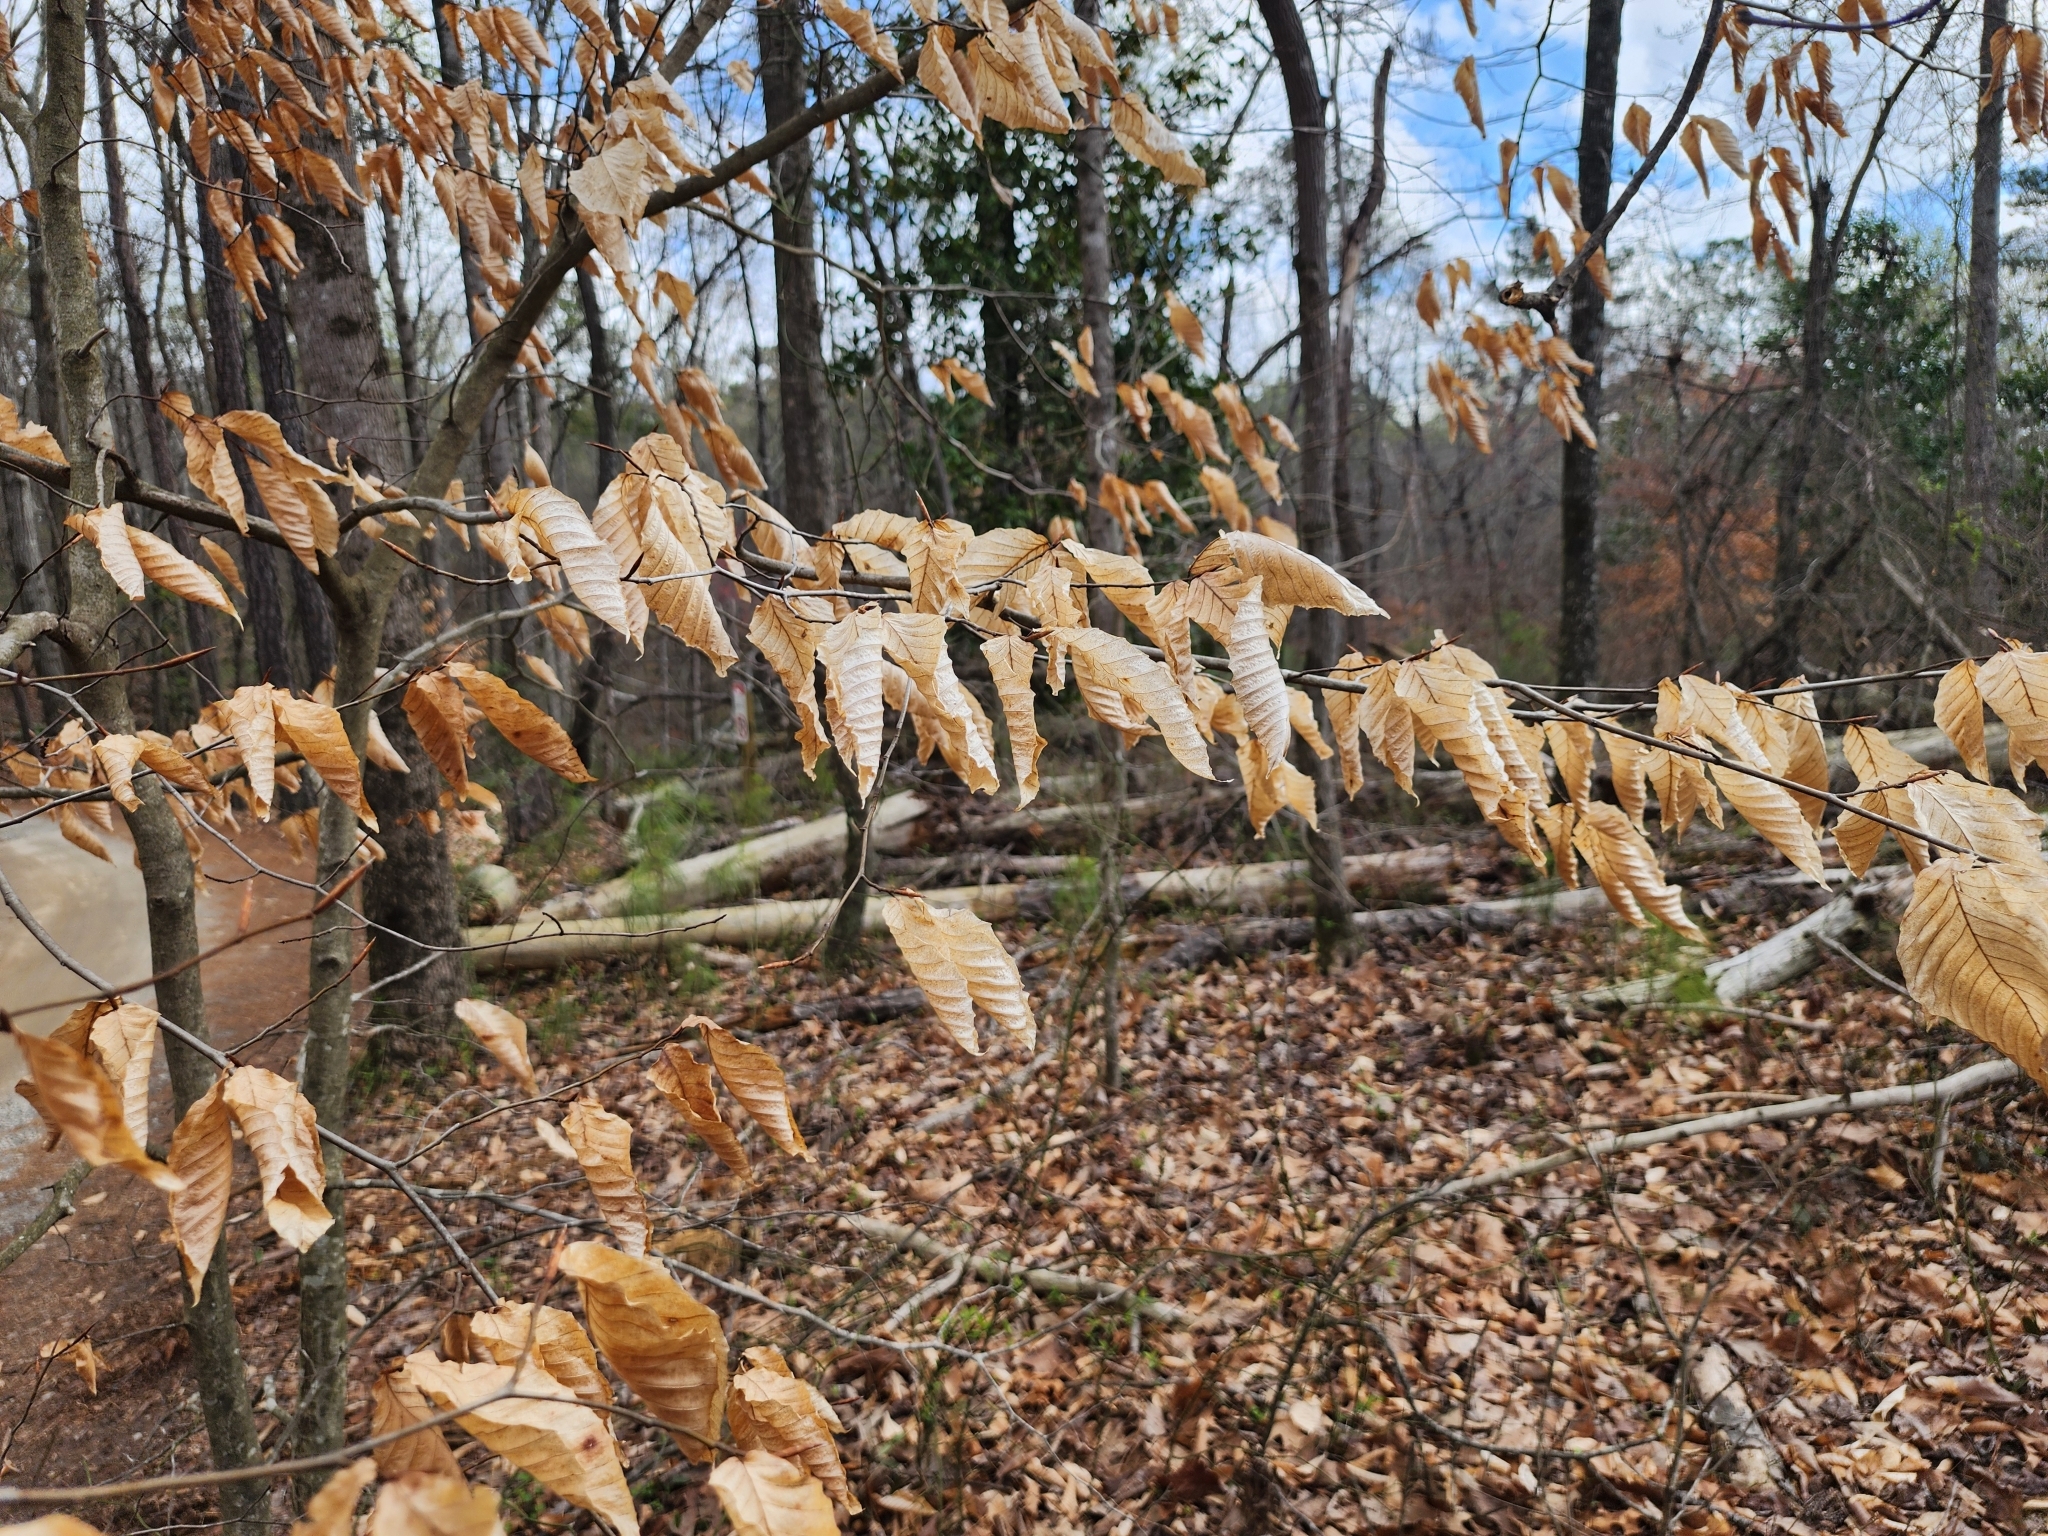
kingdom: Plantae
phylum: Tracheophyta
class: Magnoliopsida
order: Fagales
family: Fagaceae
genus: Fagus
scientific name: Fagus grandifolia
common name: American beech
